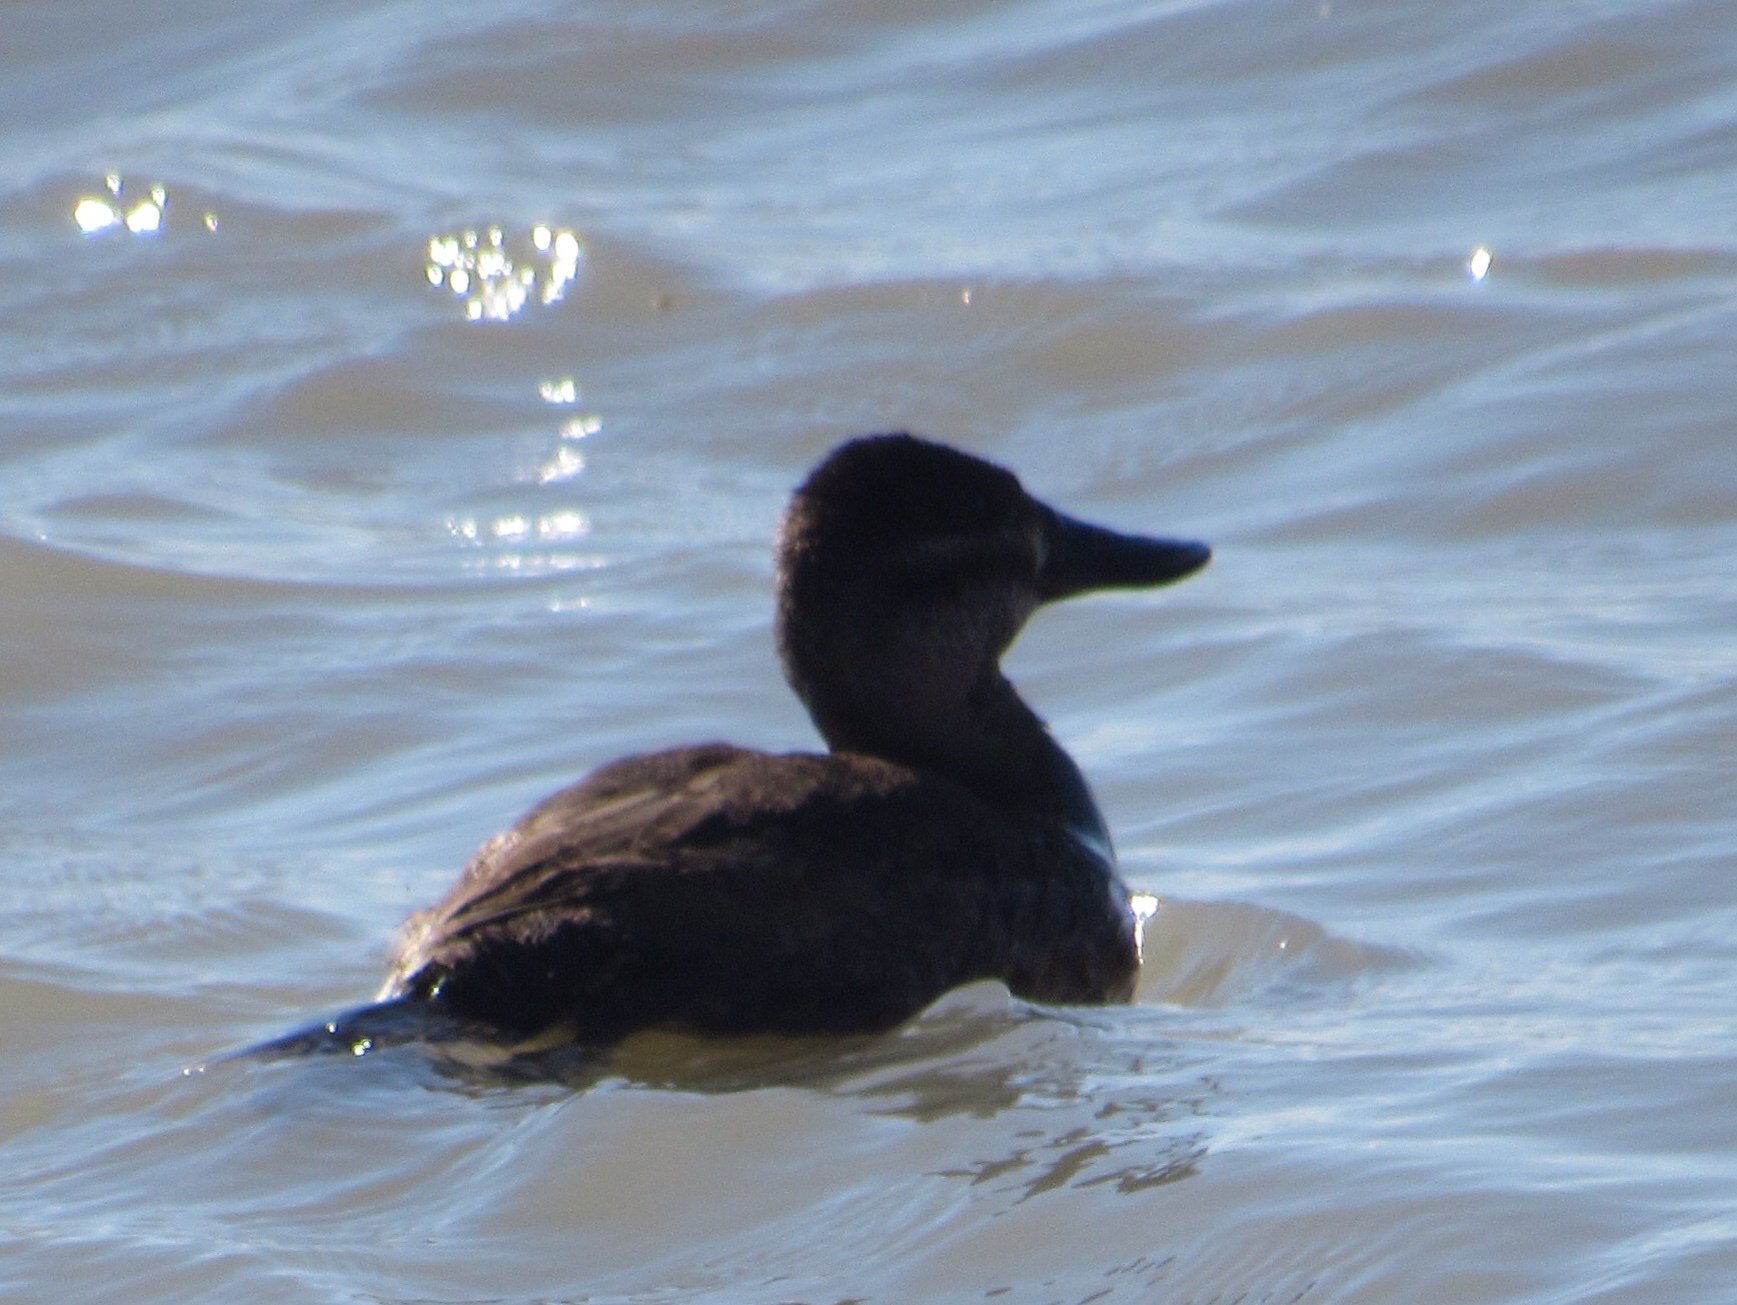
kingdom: Animalia
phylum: Chordata
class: Aves
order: Anseriformes
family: Anatidae
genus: Oxyura
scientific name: Oxyura jamaicensis
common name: Ruddy duck
